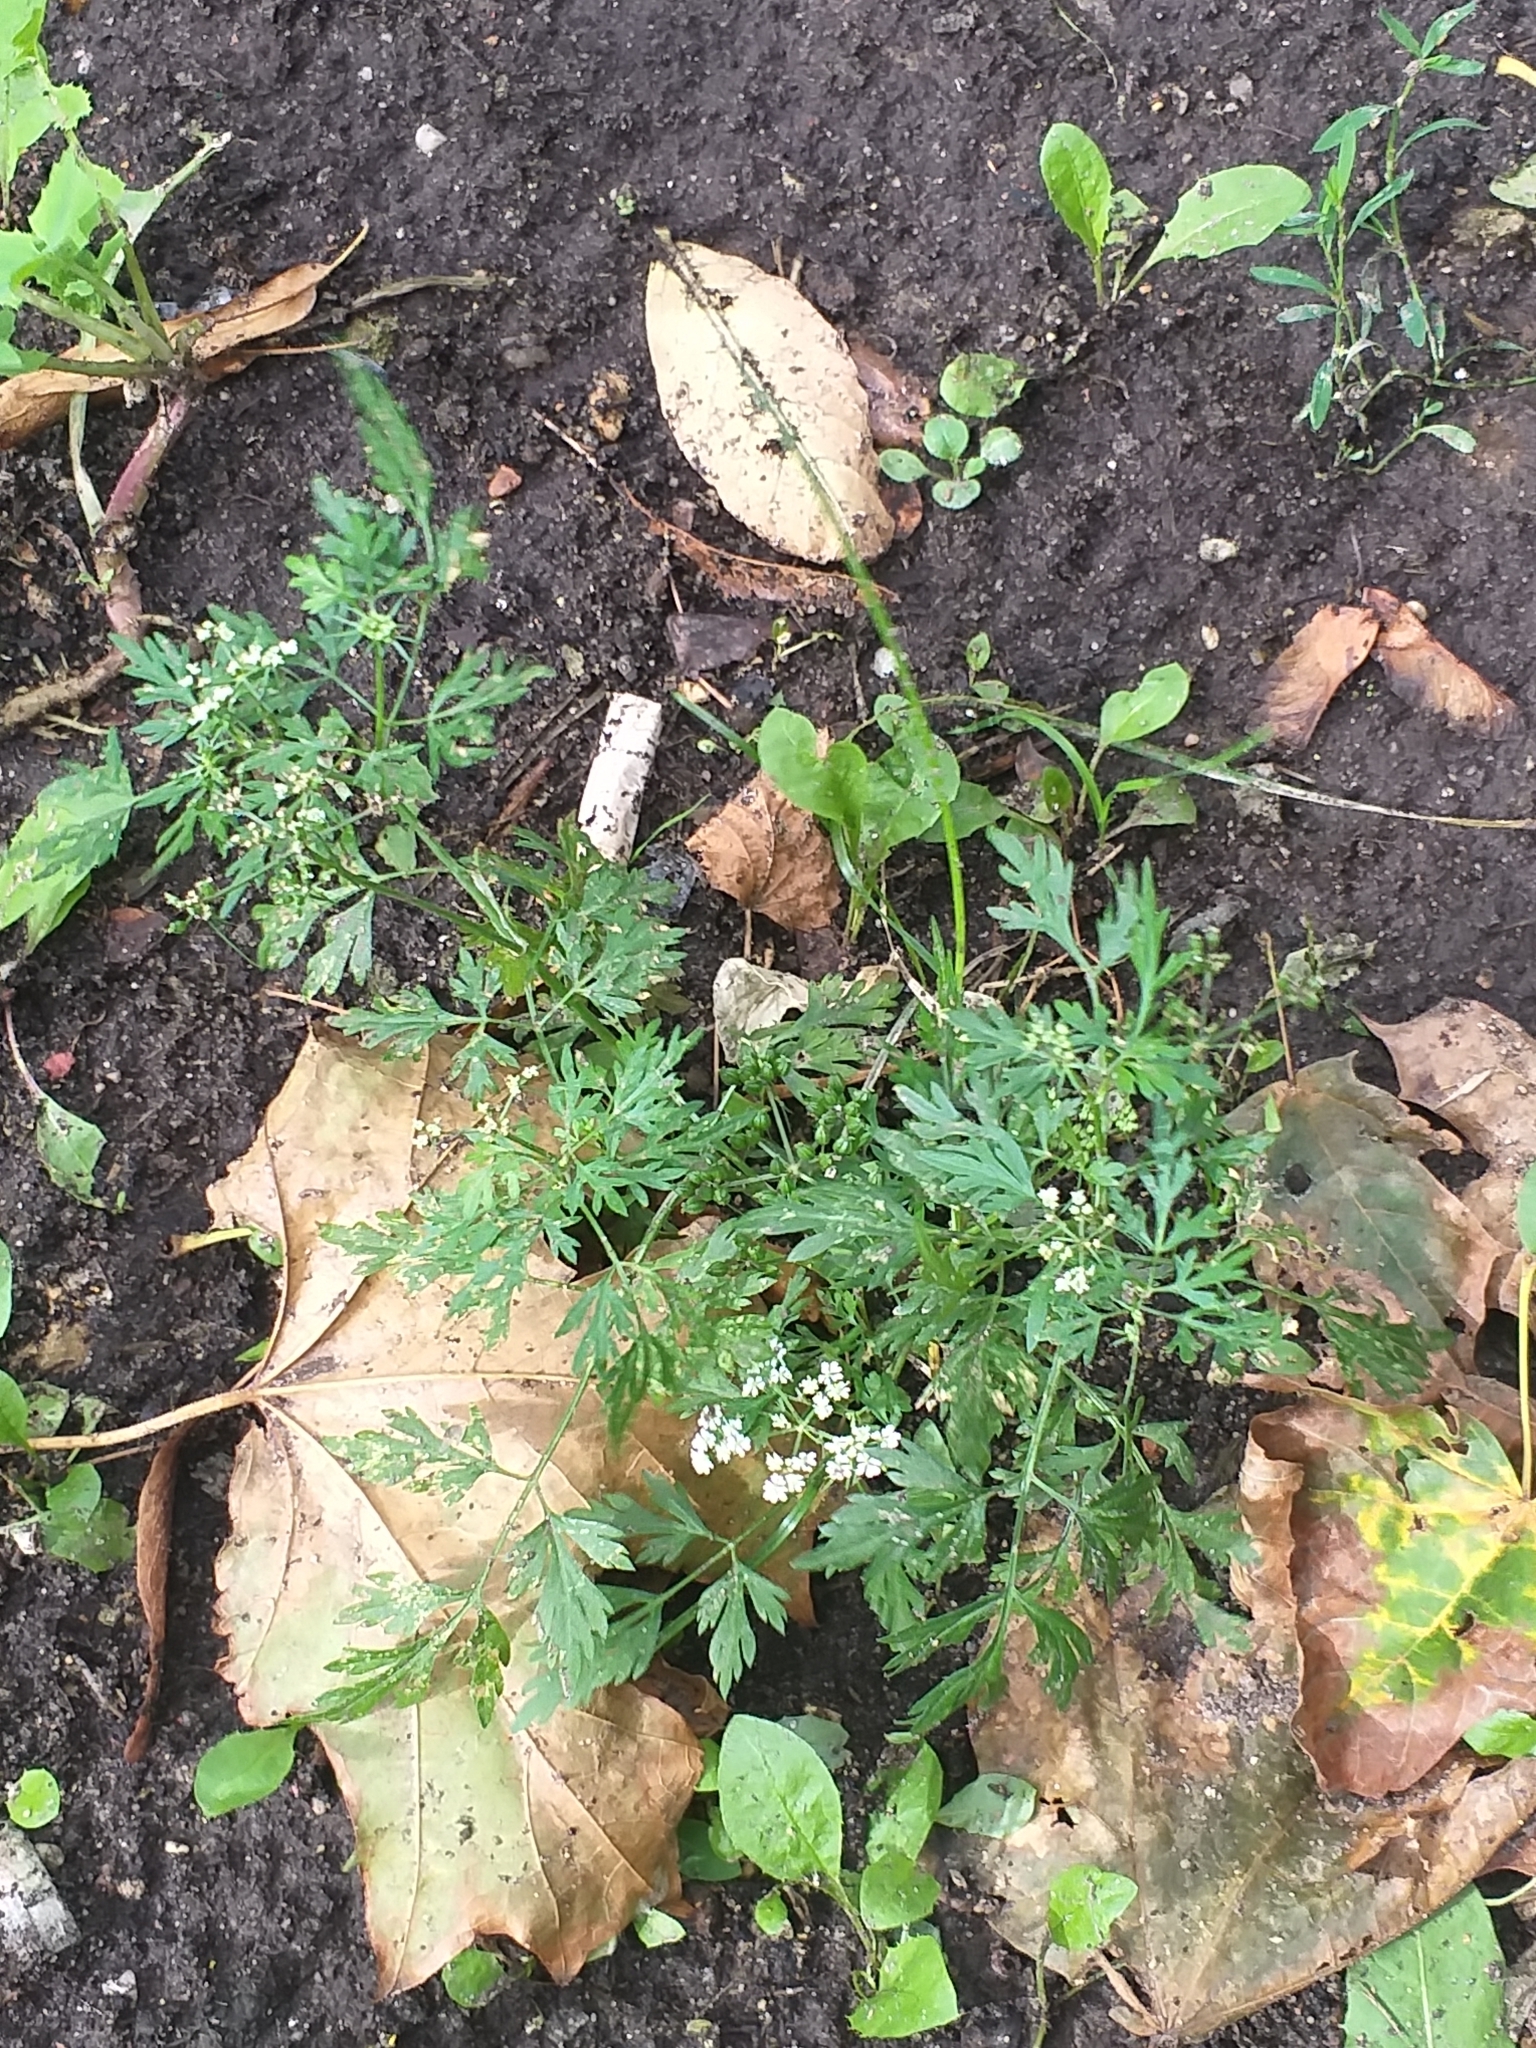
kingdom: Plantae
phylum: Tracheophyta
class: Magnoliopsida
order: Apiales
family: Apiaceae
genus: Aethusa
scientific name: Aethusa cynapium
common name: Fool's parsley
